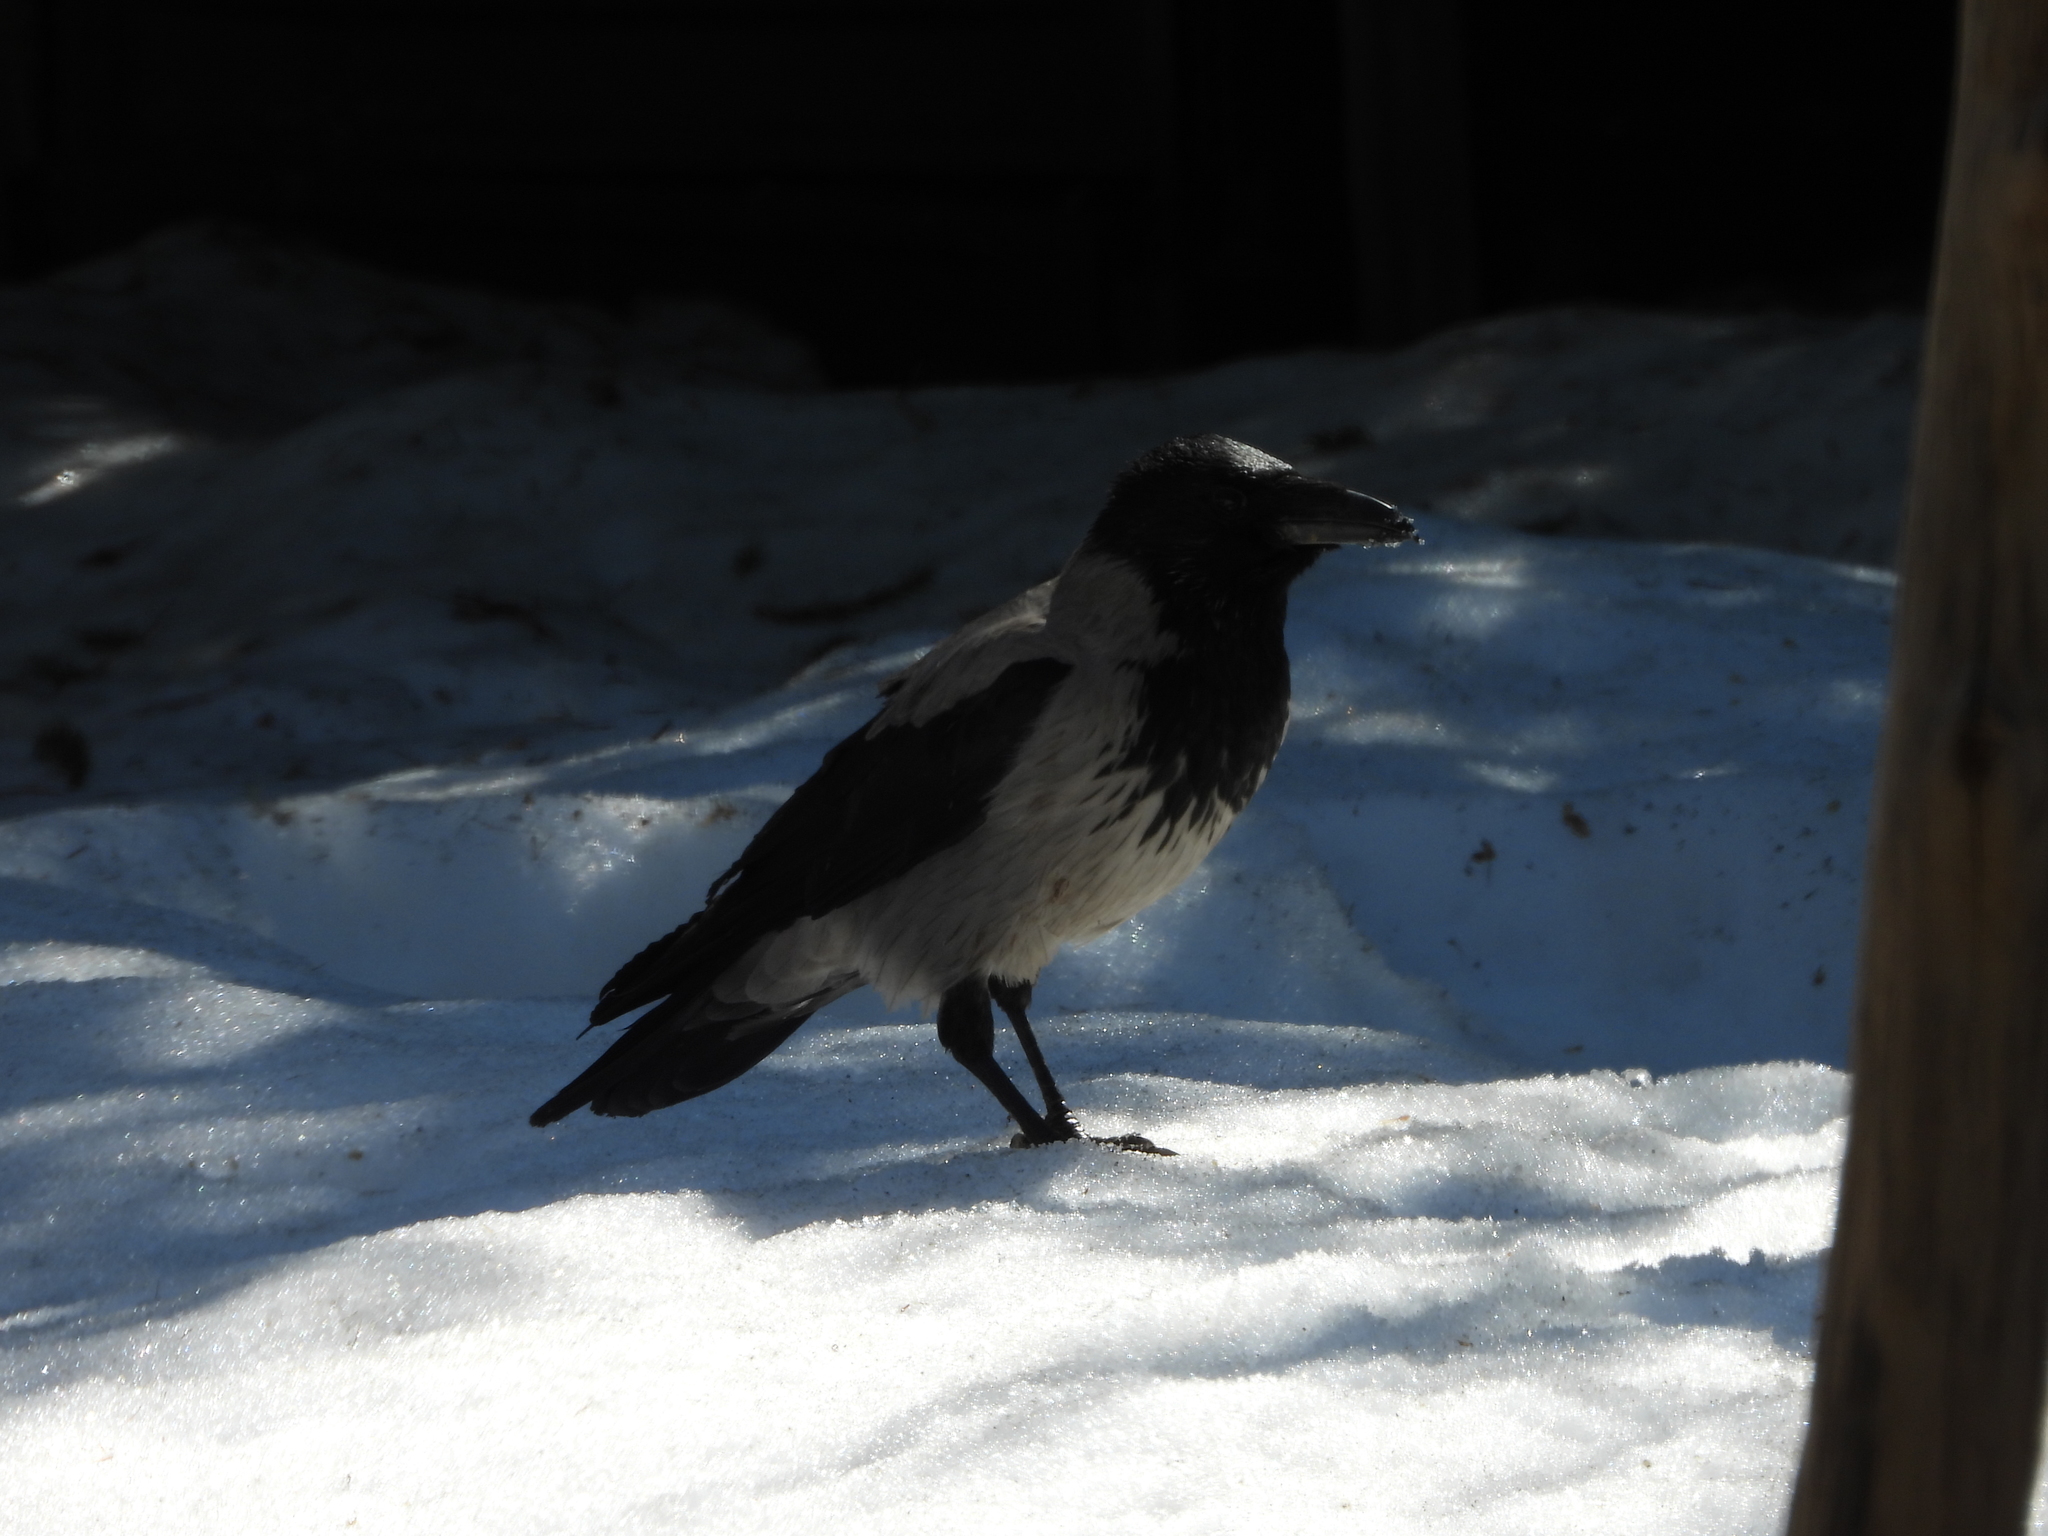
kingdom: Animalia
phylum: Chordata
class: Aves
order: Passeriformes
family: Corvidae
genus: Corvus
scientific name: Corvus cornix
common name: Hooded crow
